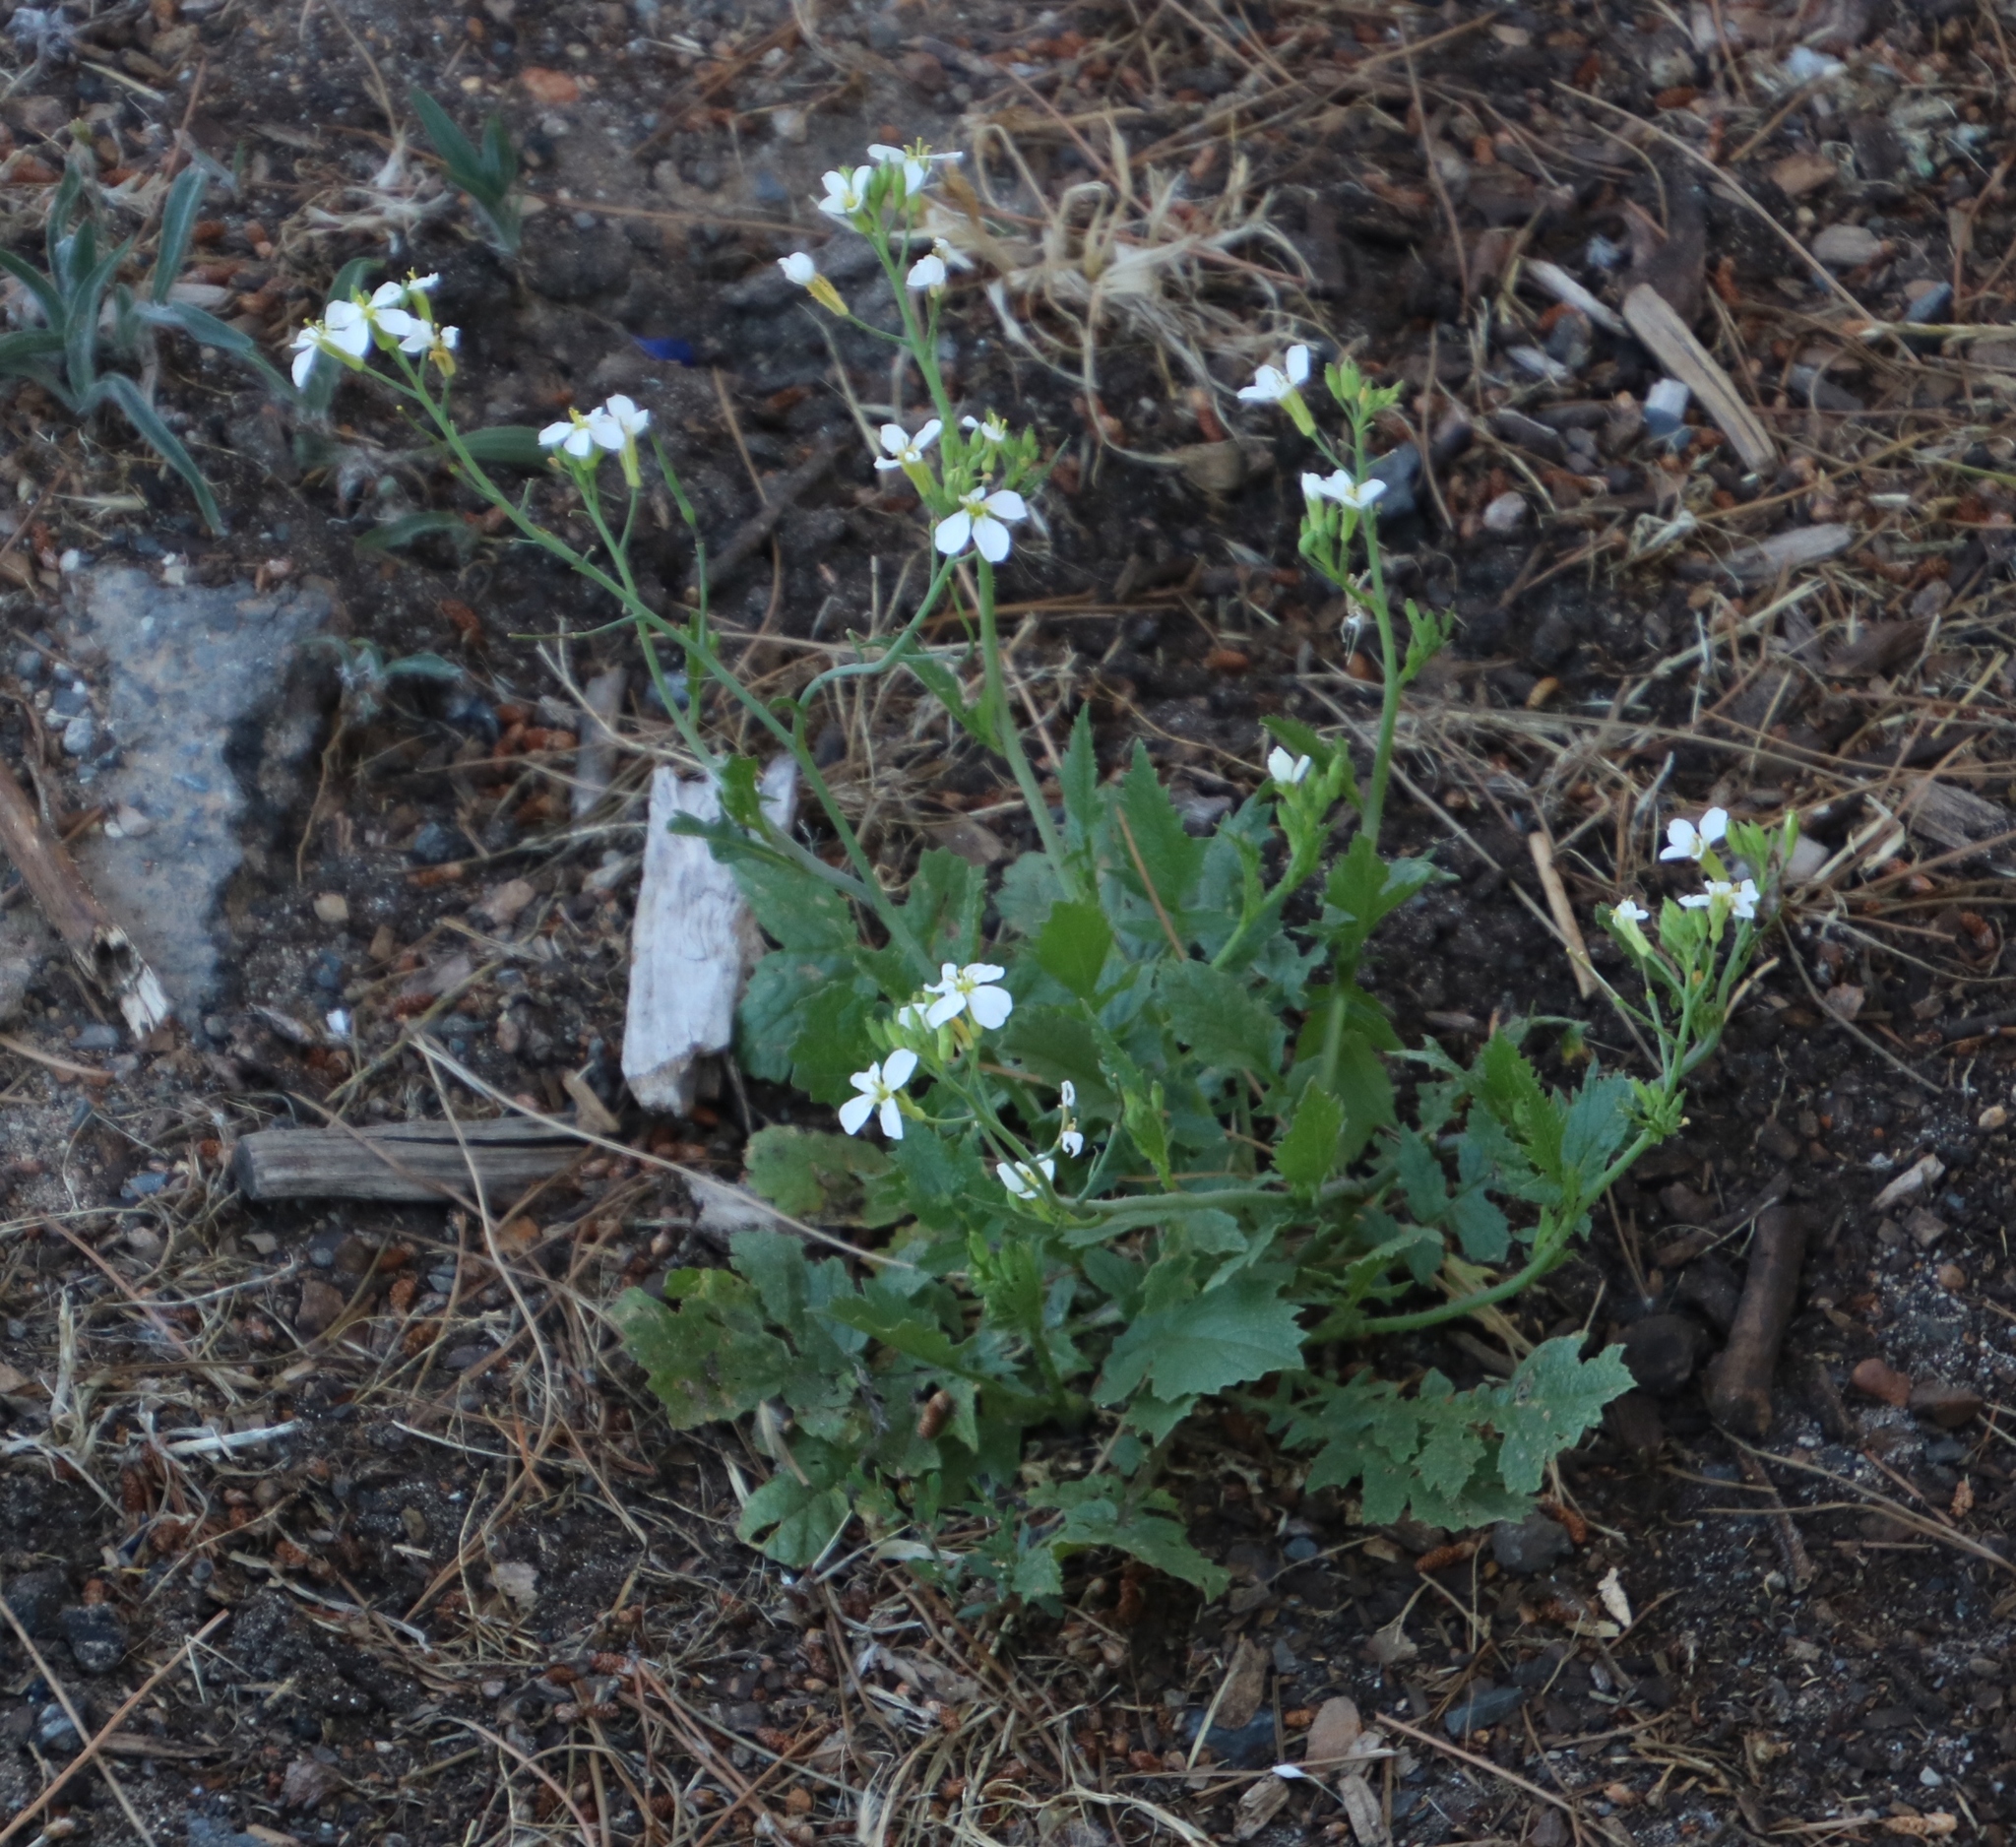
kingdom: Plantae
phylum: Tracheophyta
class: Magnoliopsida
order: Brassicales
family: Brassicaceae
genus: Raphanus
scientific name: Raphanus sativus
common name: Cultivated radish
